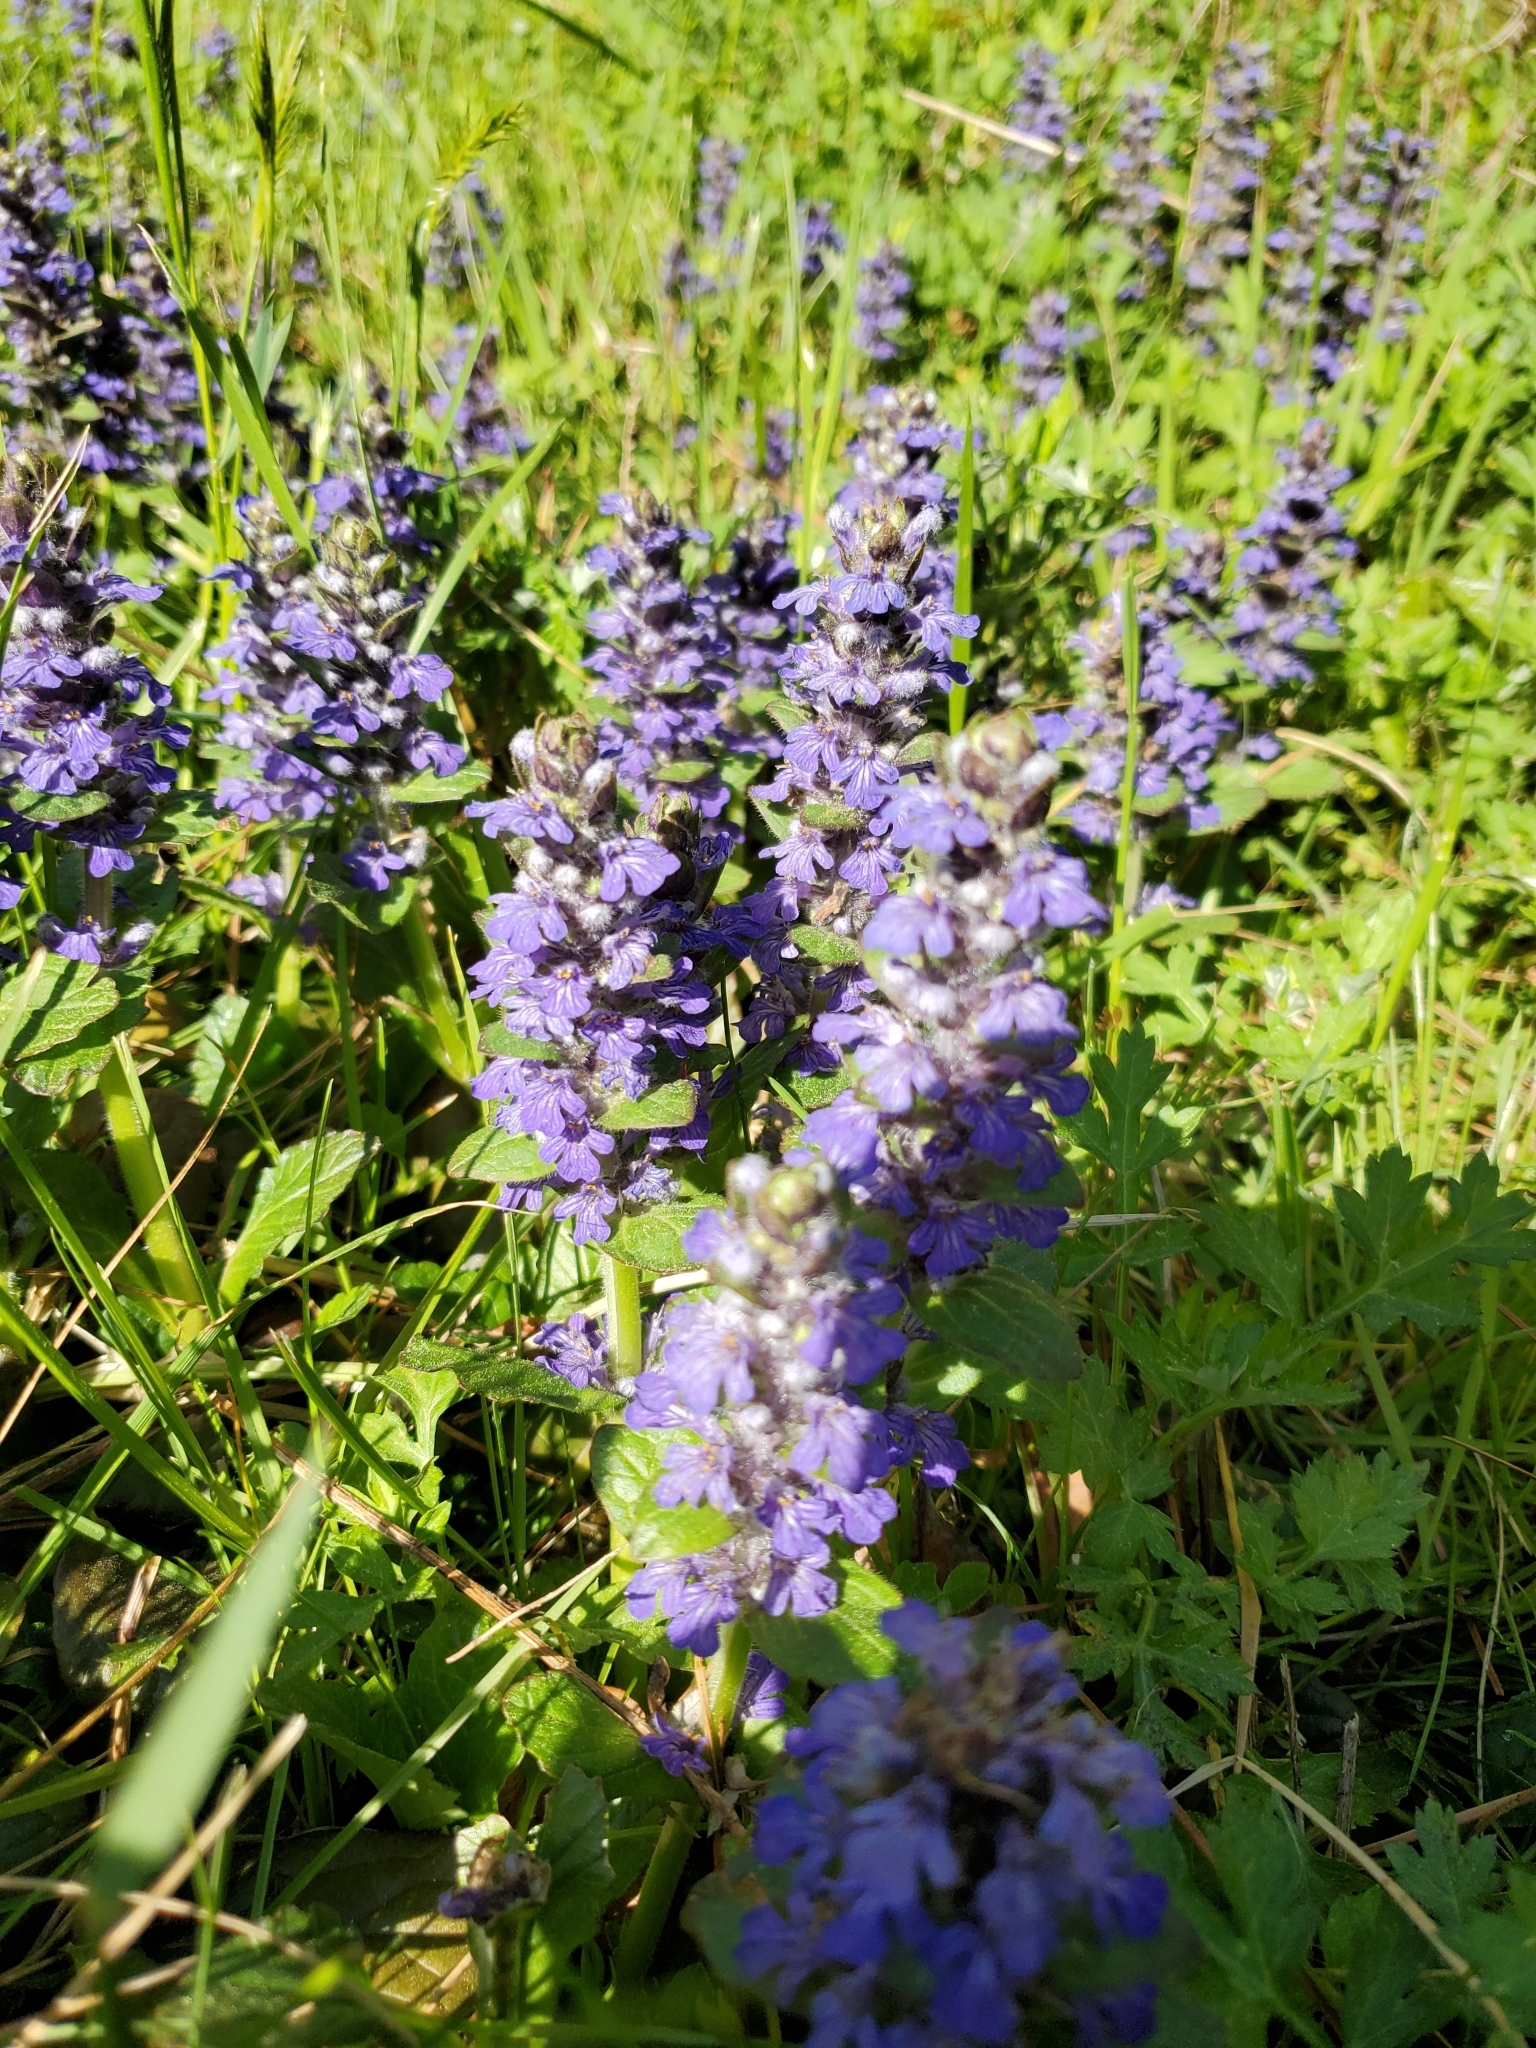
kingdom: Plantae
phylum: Tracheophyta
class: Magnoliopsida
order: Lamiales
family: Lamiaceae
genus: Ajuga
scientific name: Ajuga reptans
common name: Bugle
